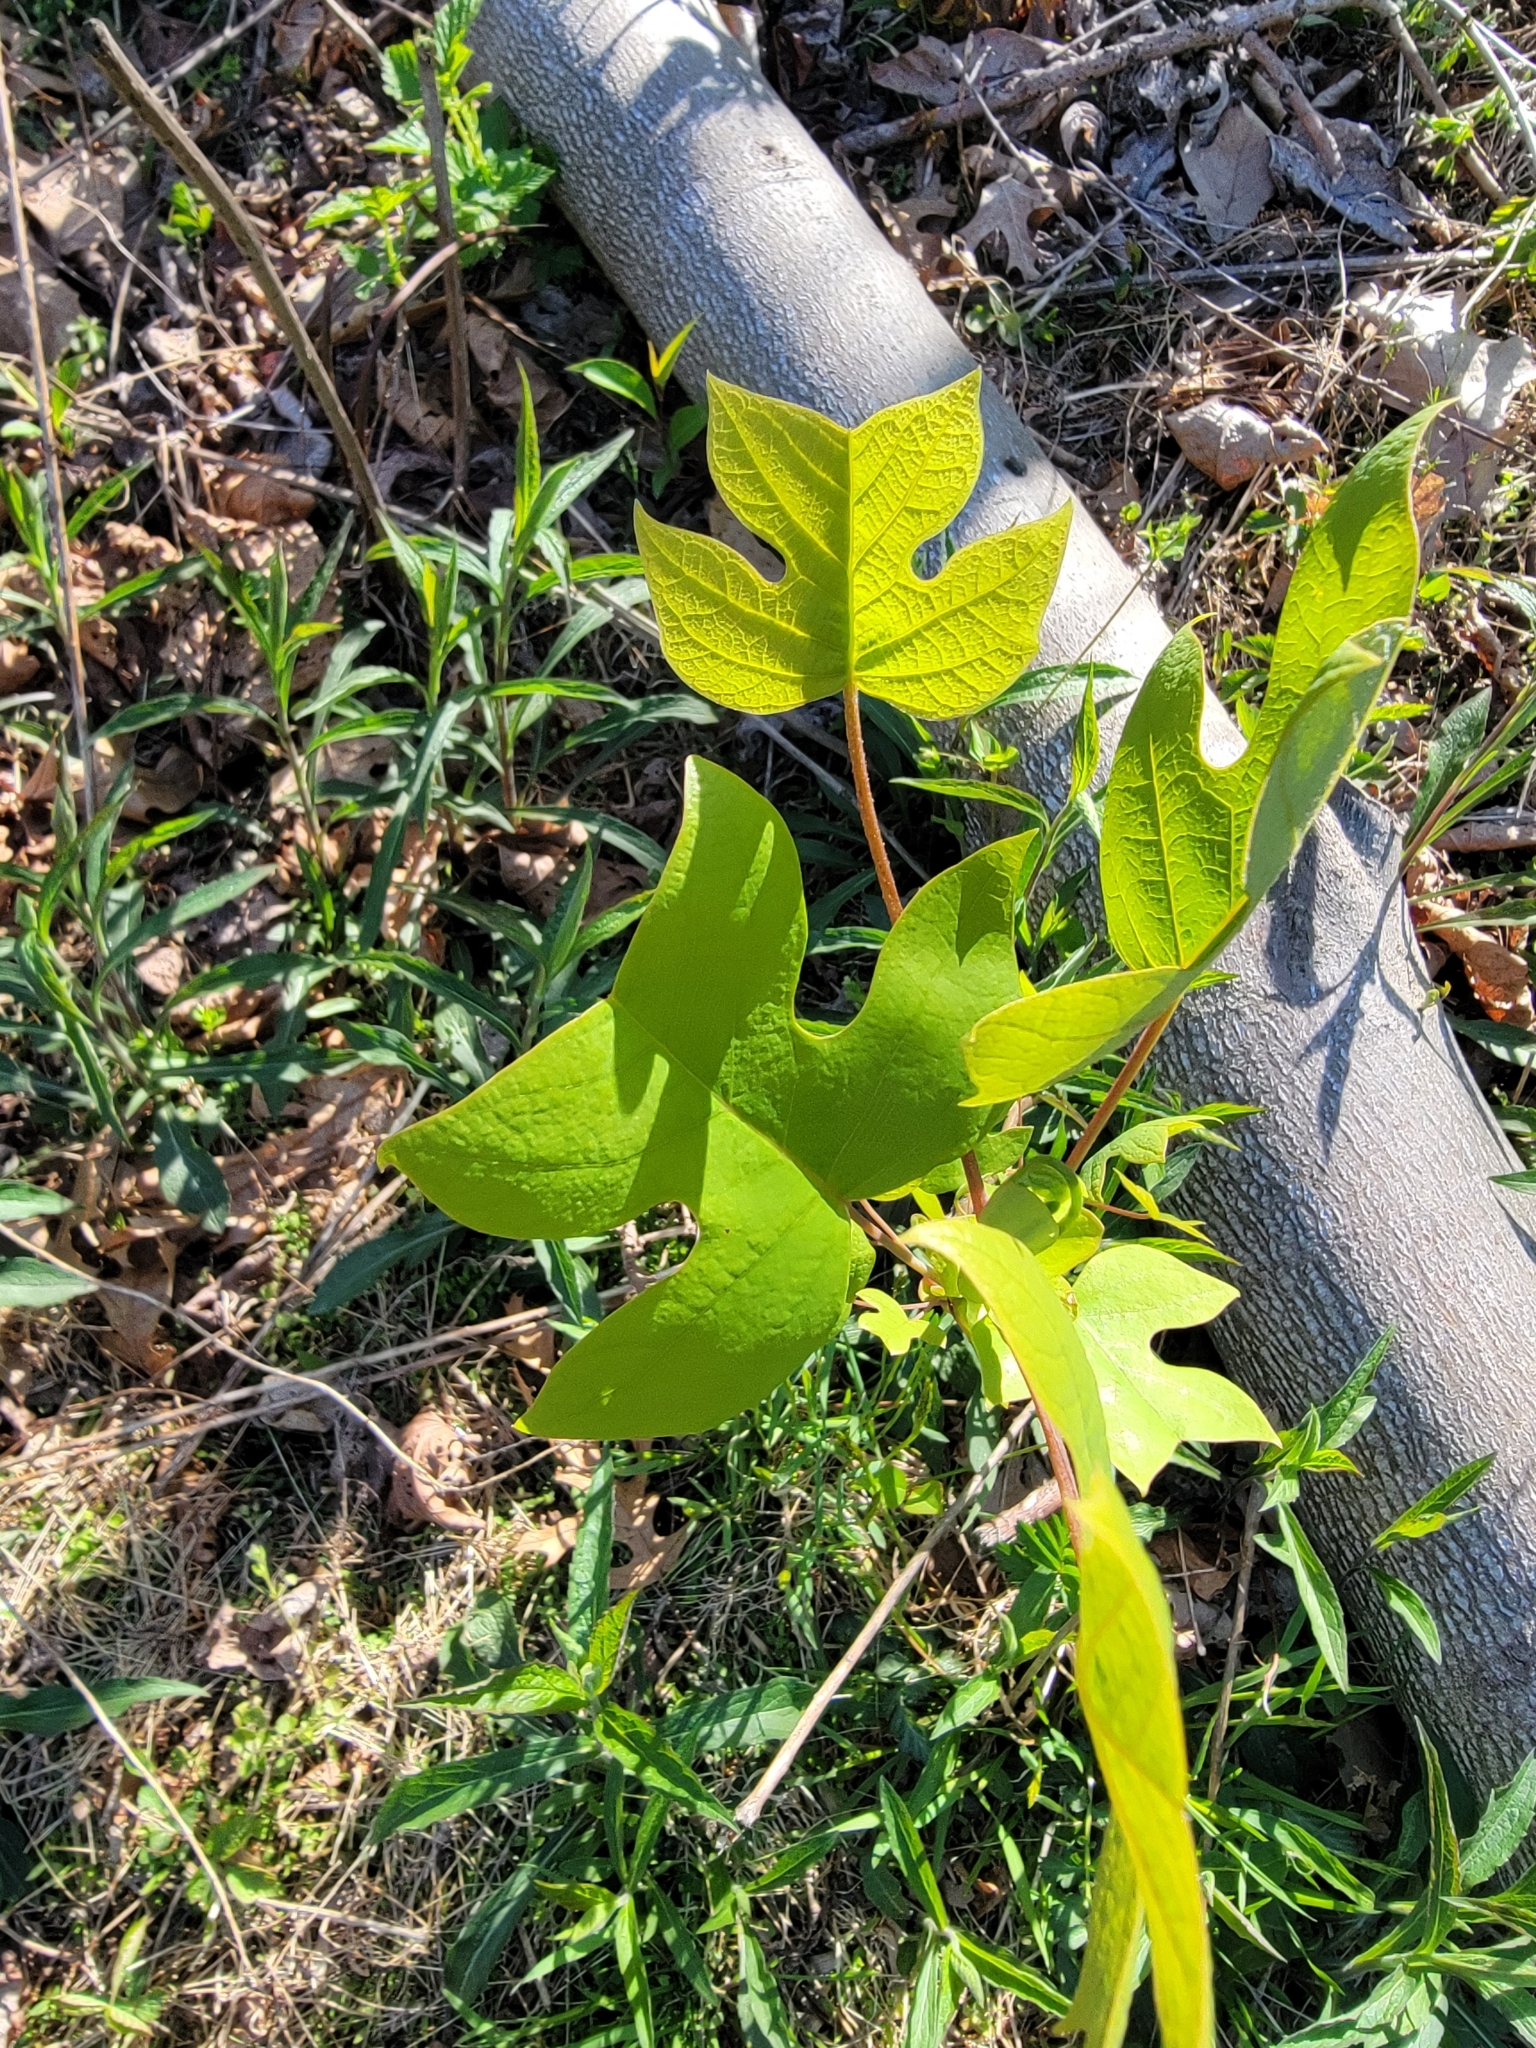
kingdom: Plantae
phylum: Tracheophyta
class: Magnoliopsida
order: Magnoliales
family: Magnoliaceae
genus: Liriodendron
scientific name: Liriodendron tulipifera
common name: Tulip tree
